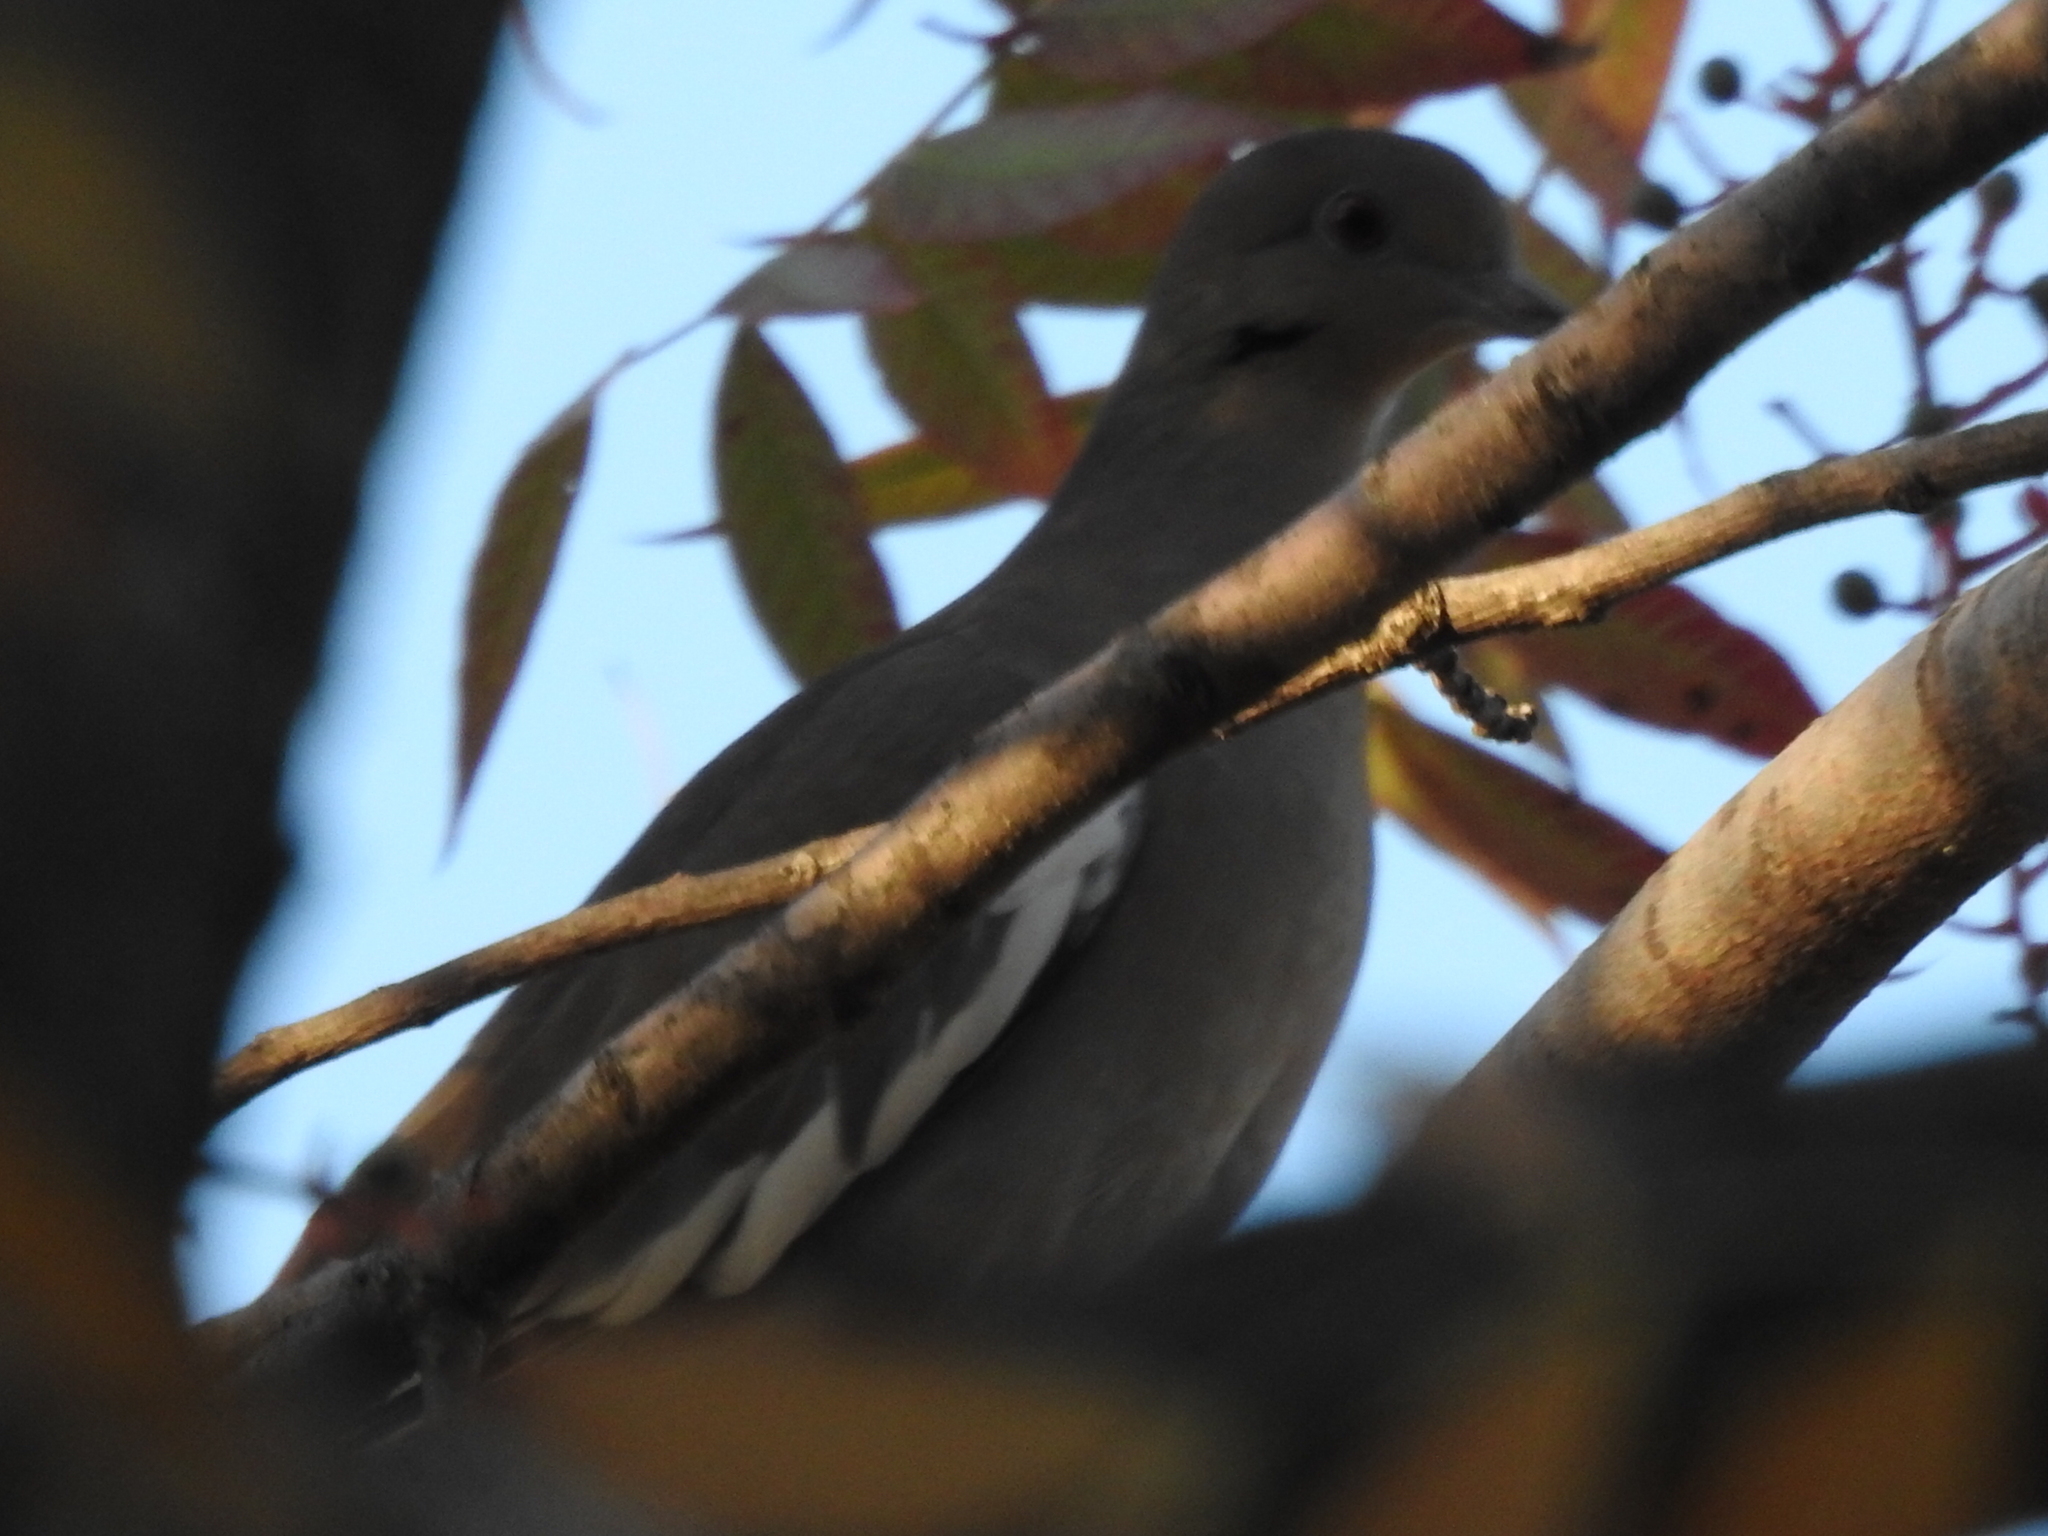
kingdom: Animalia
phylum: Chordata
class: Aves
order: Columbiformes
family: Columbidae
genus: Zenaida
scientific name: Zenaida asiatica
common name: White-winged dove
